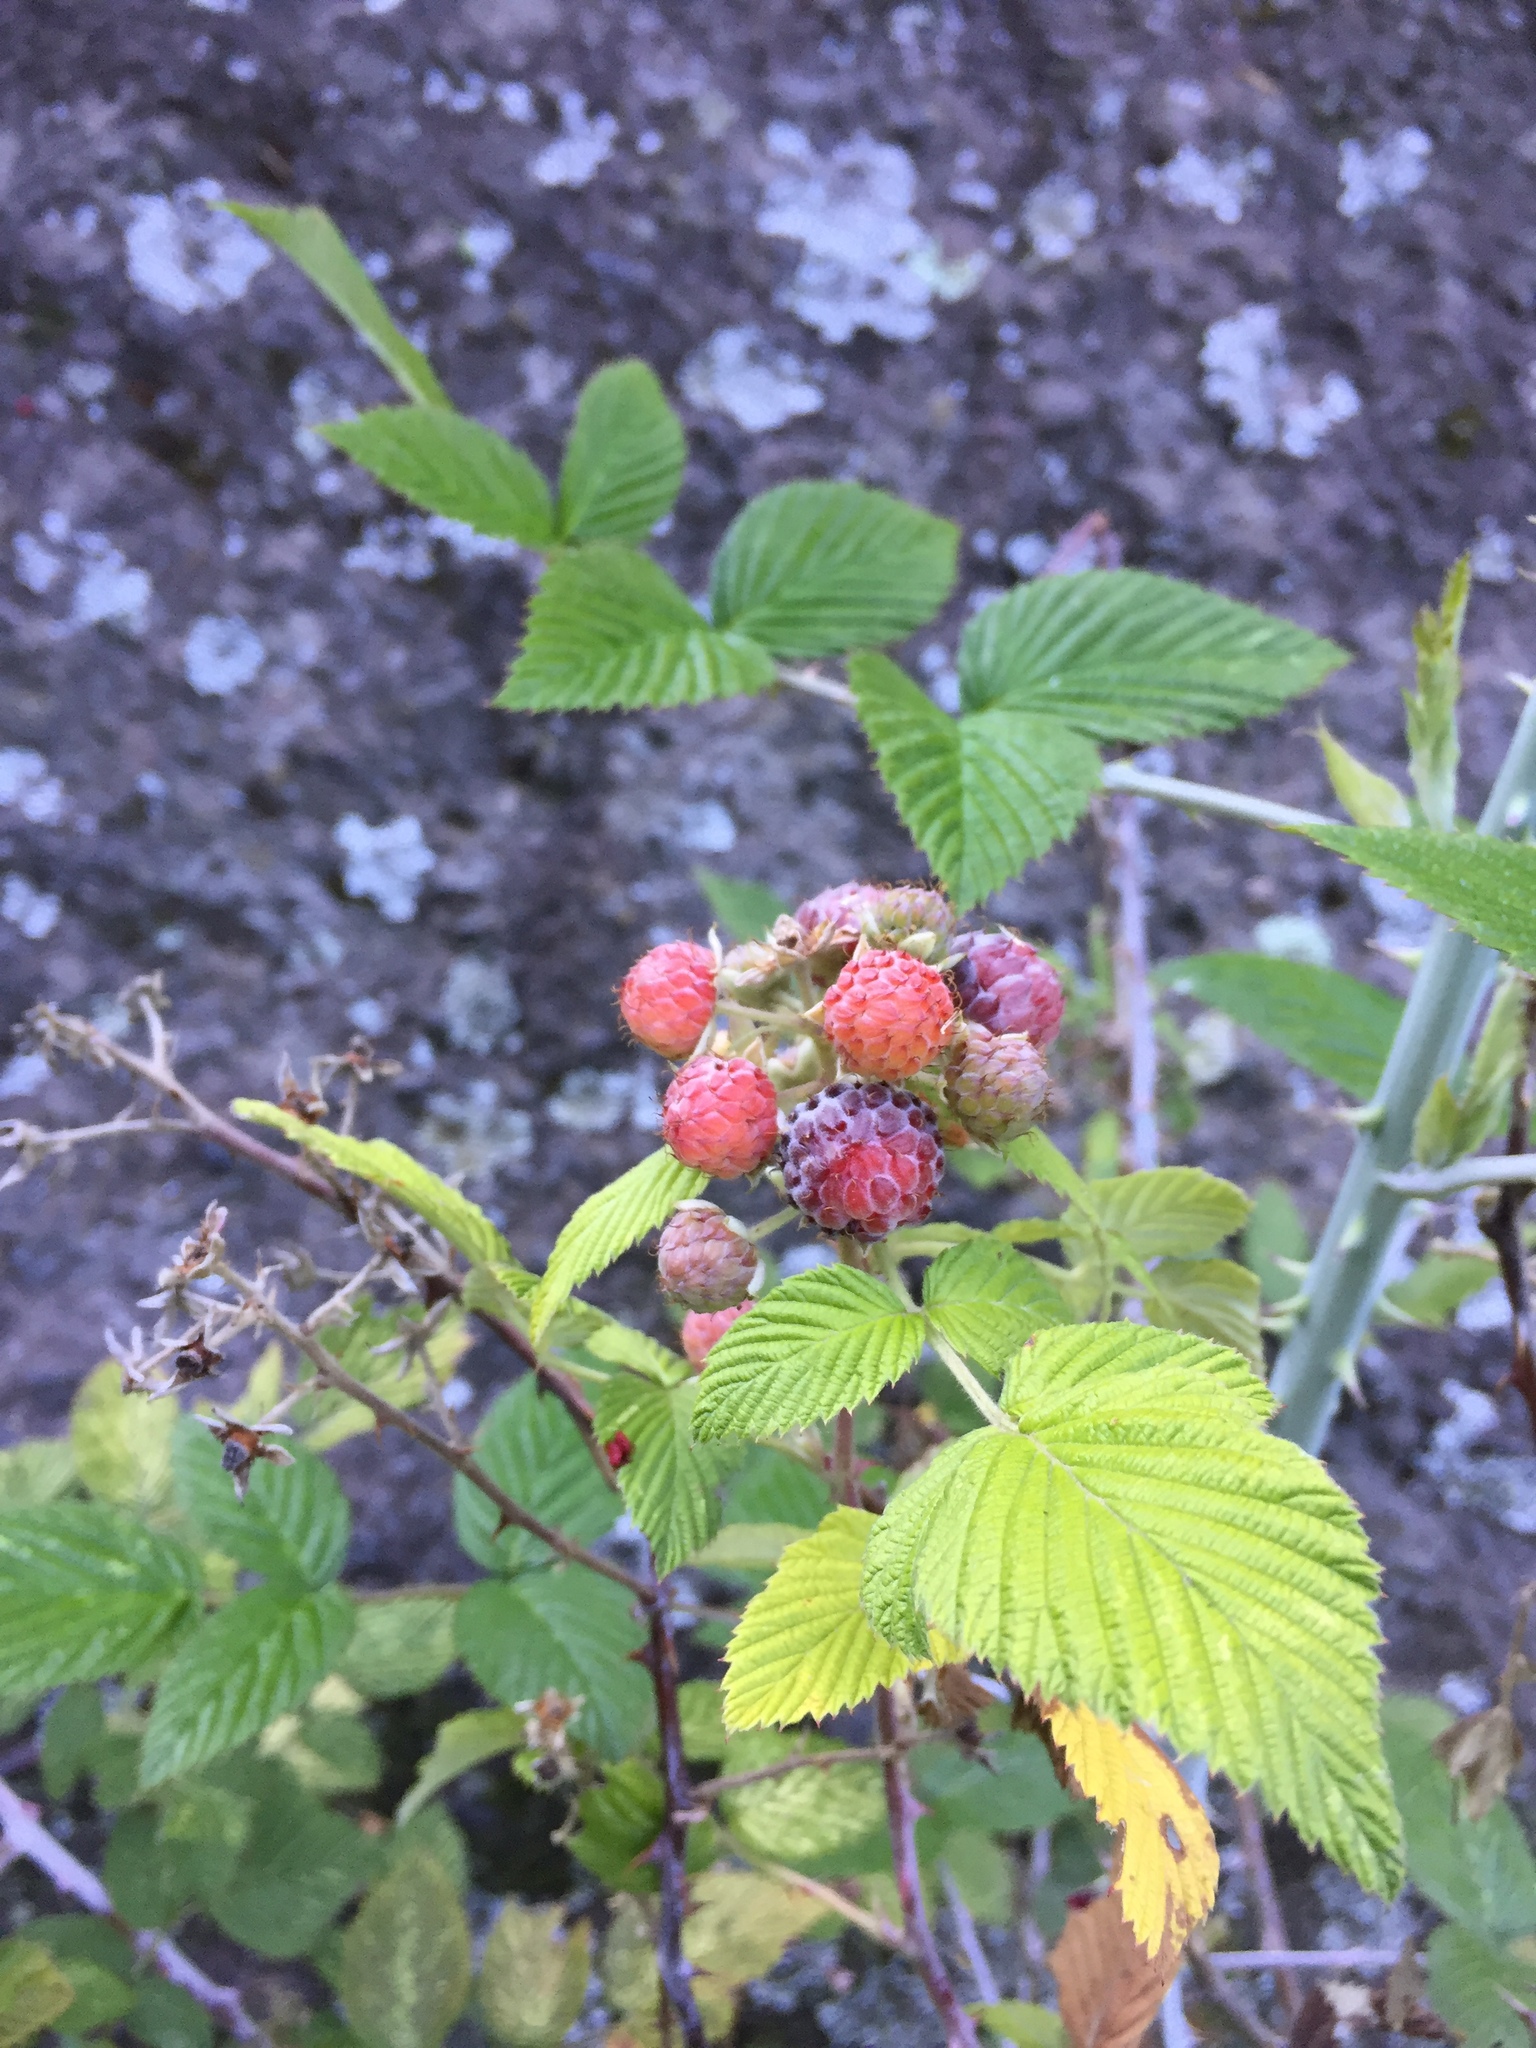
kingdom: Plantae
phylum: Tracheophyta
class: Magnoliopsida
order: Rosales
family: Rosaceae
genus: Rubus
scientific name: Rubus niveus
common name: Snowpeaks raspberry
